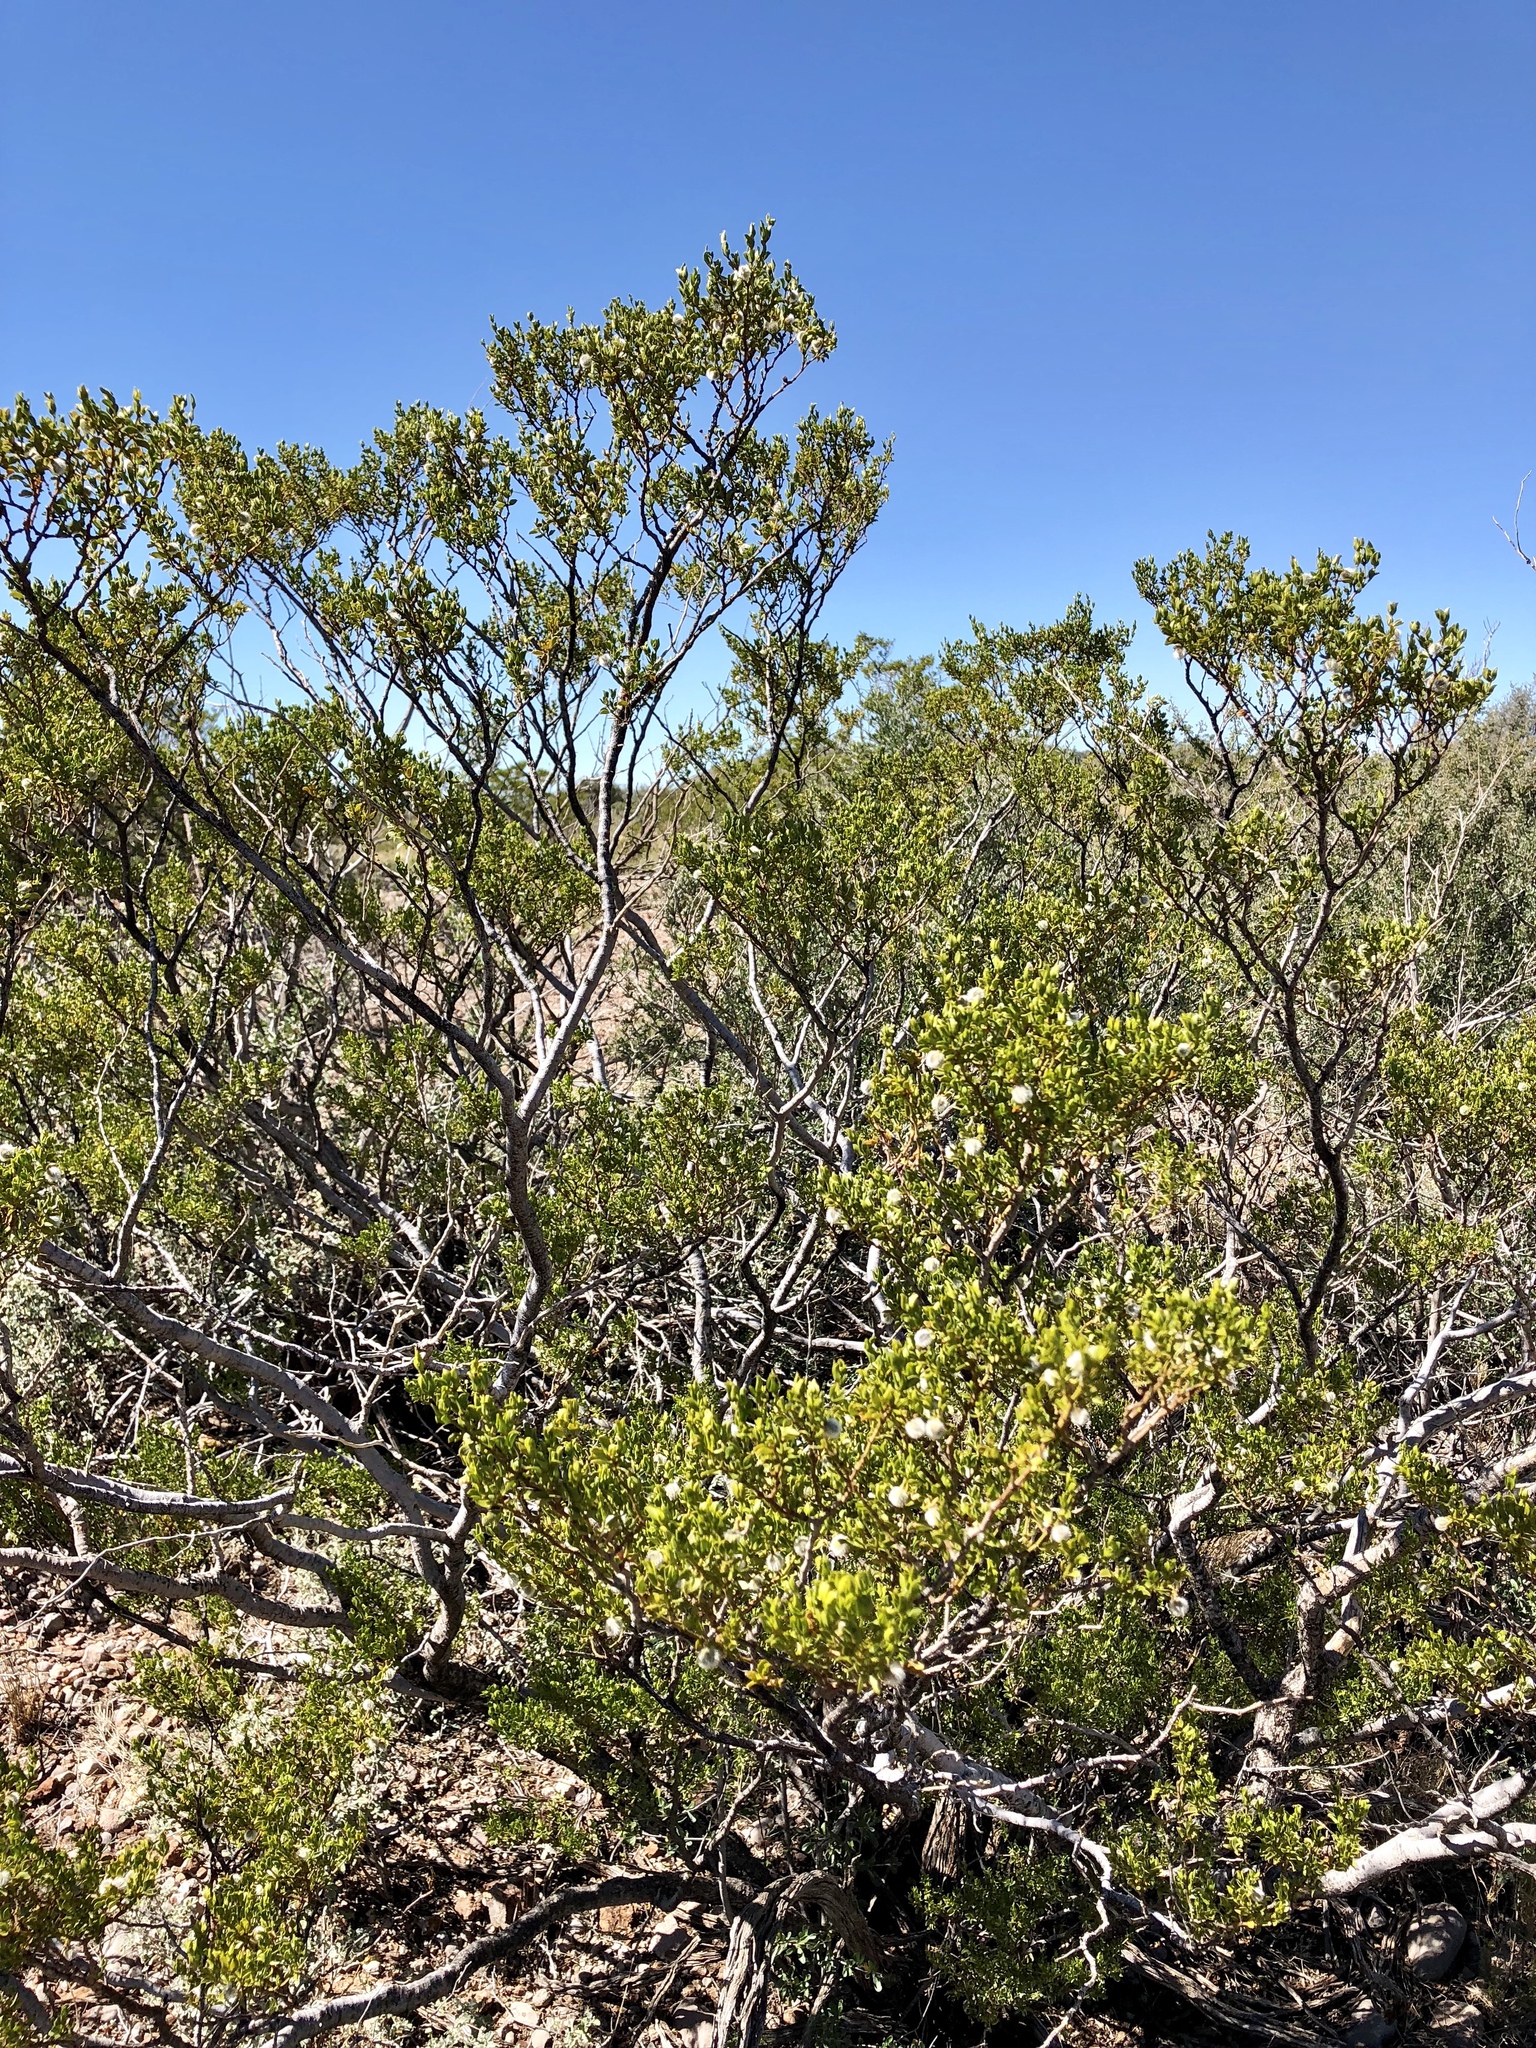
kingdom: Plantae
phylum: Tracheophyta
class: Magnoliopsida
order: Zygophyllales
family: Zygophyllaceae
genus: Larrea
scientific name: Larrea tridentata
